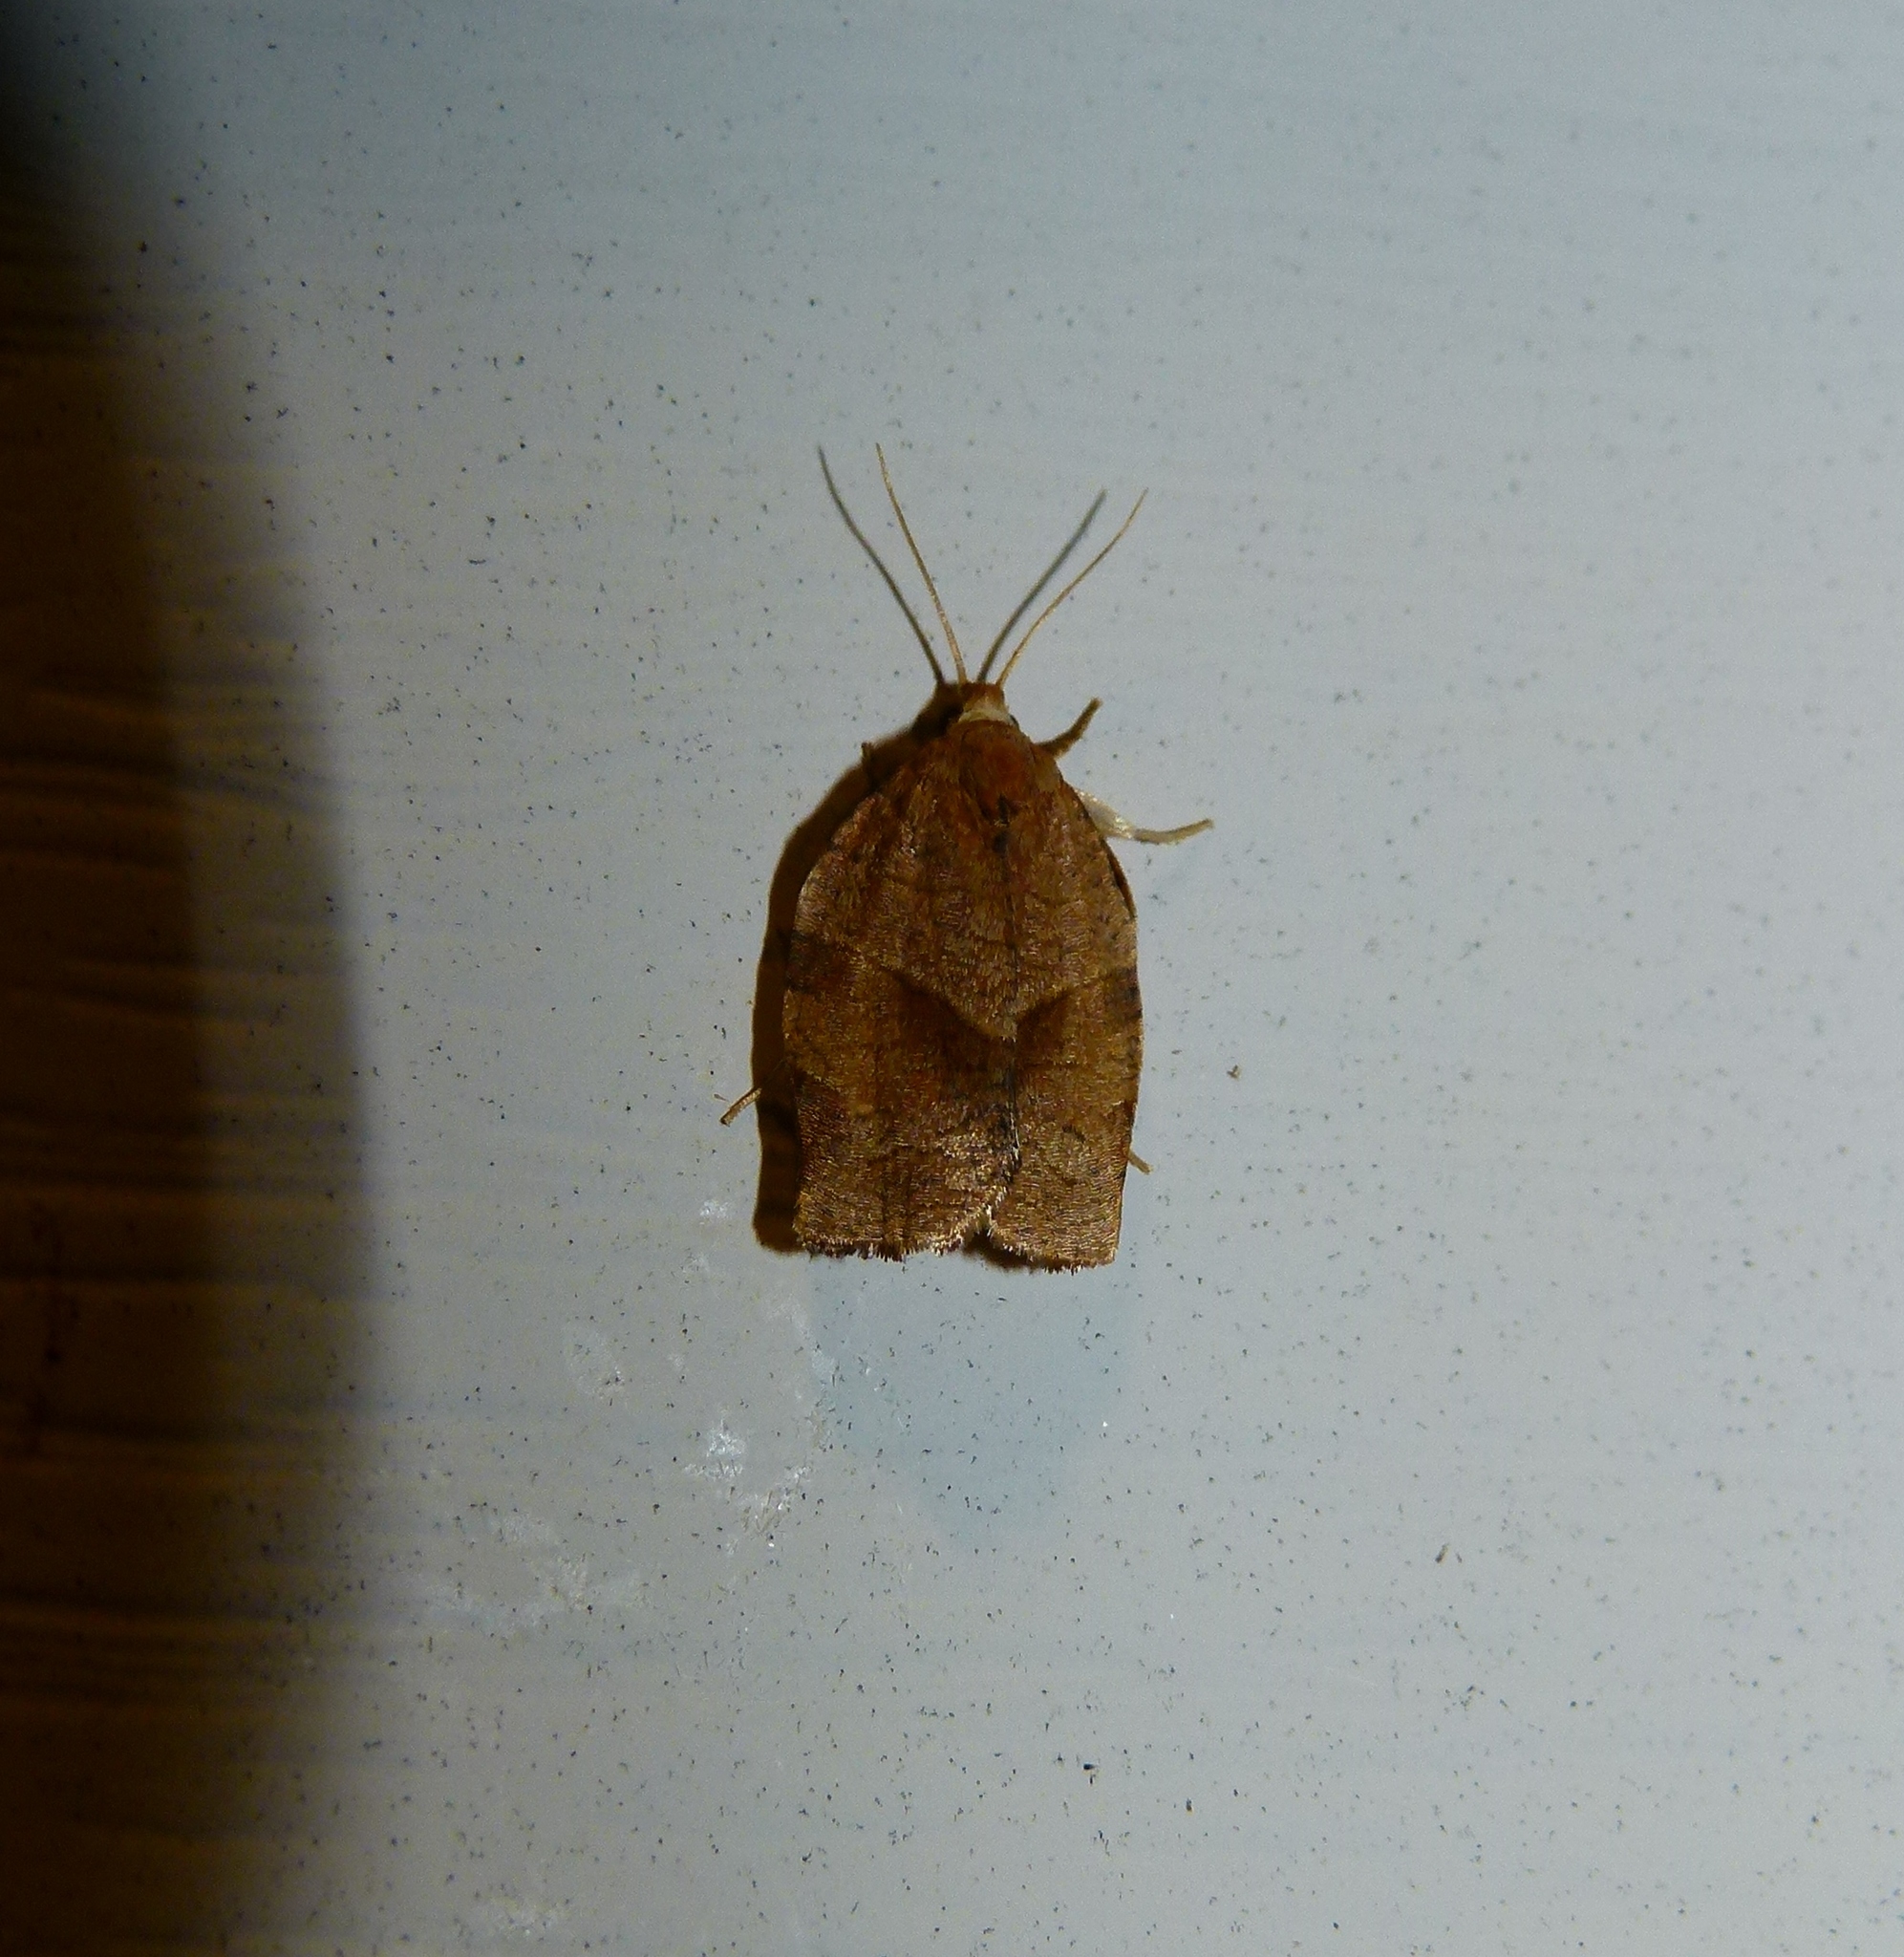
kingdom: Animalia
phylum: Arthropoda
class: Insecta
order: Lepidoptera
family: Tortricidae
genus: Choristoneura
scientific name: Choristoneura rosaceana
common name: Oblique-banded leafroller moth
